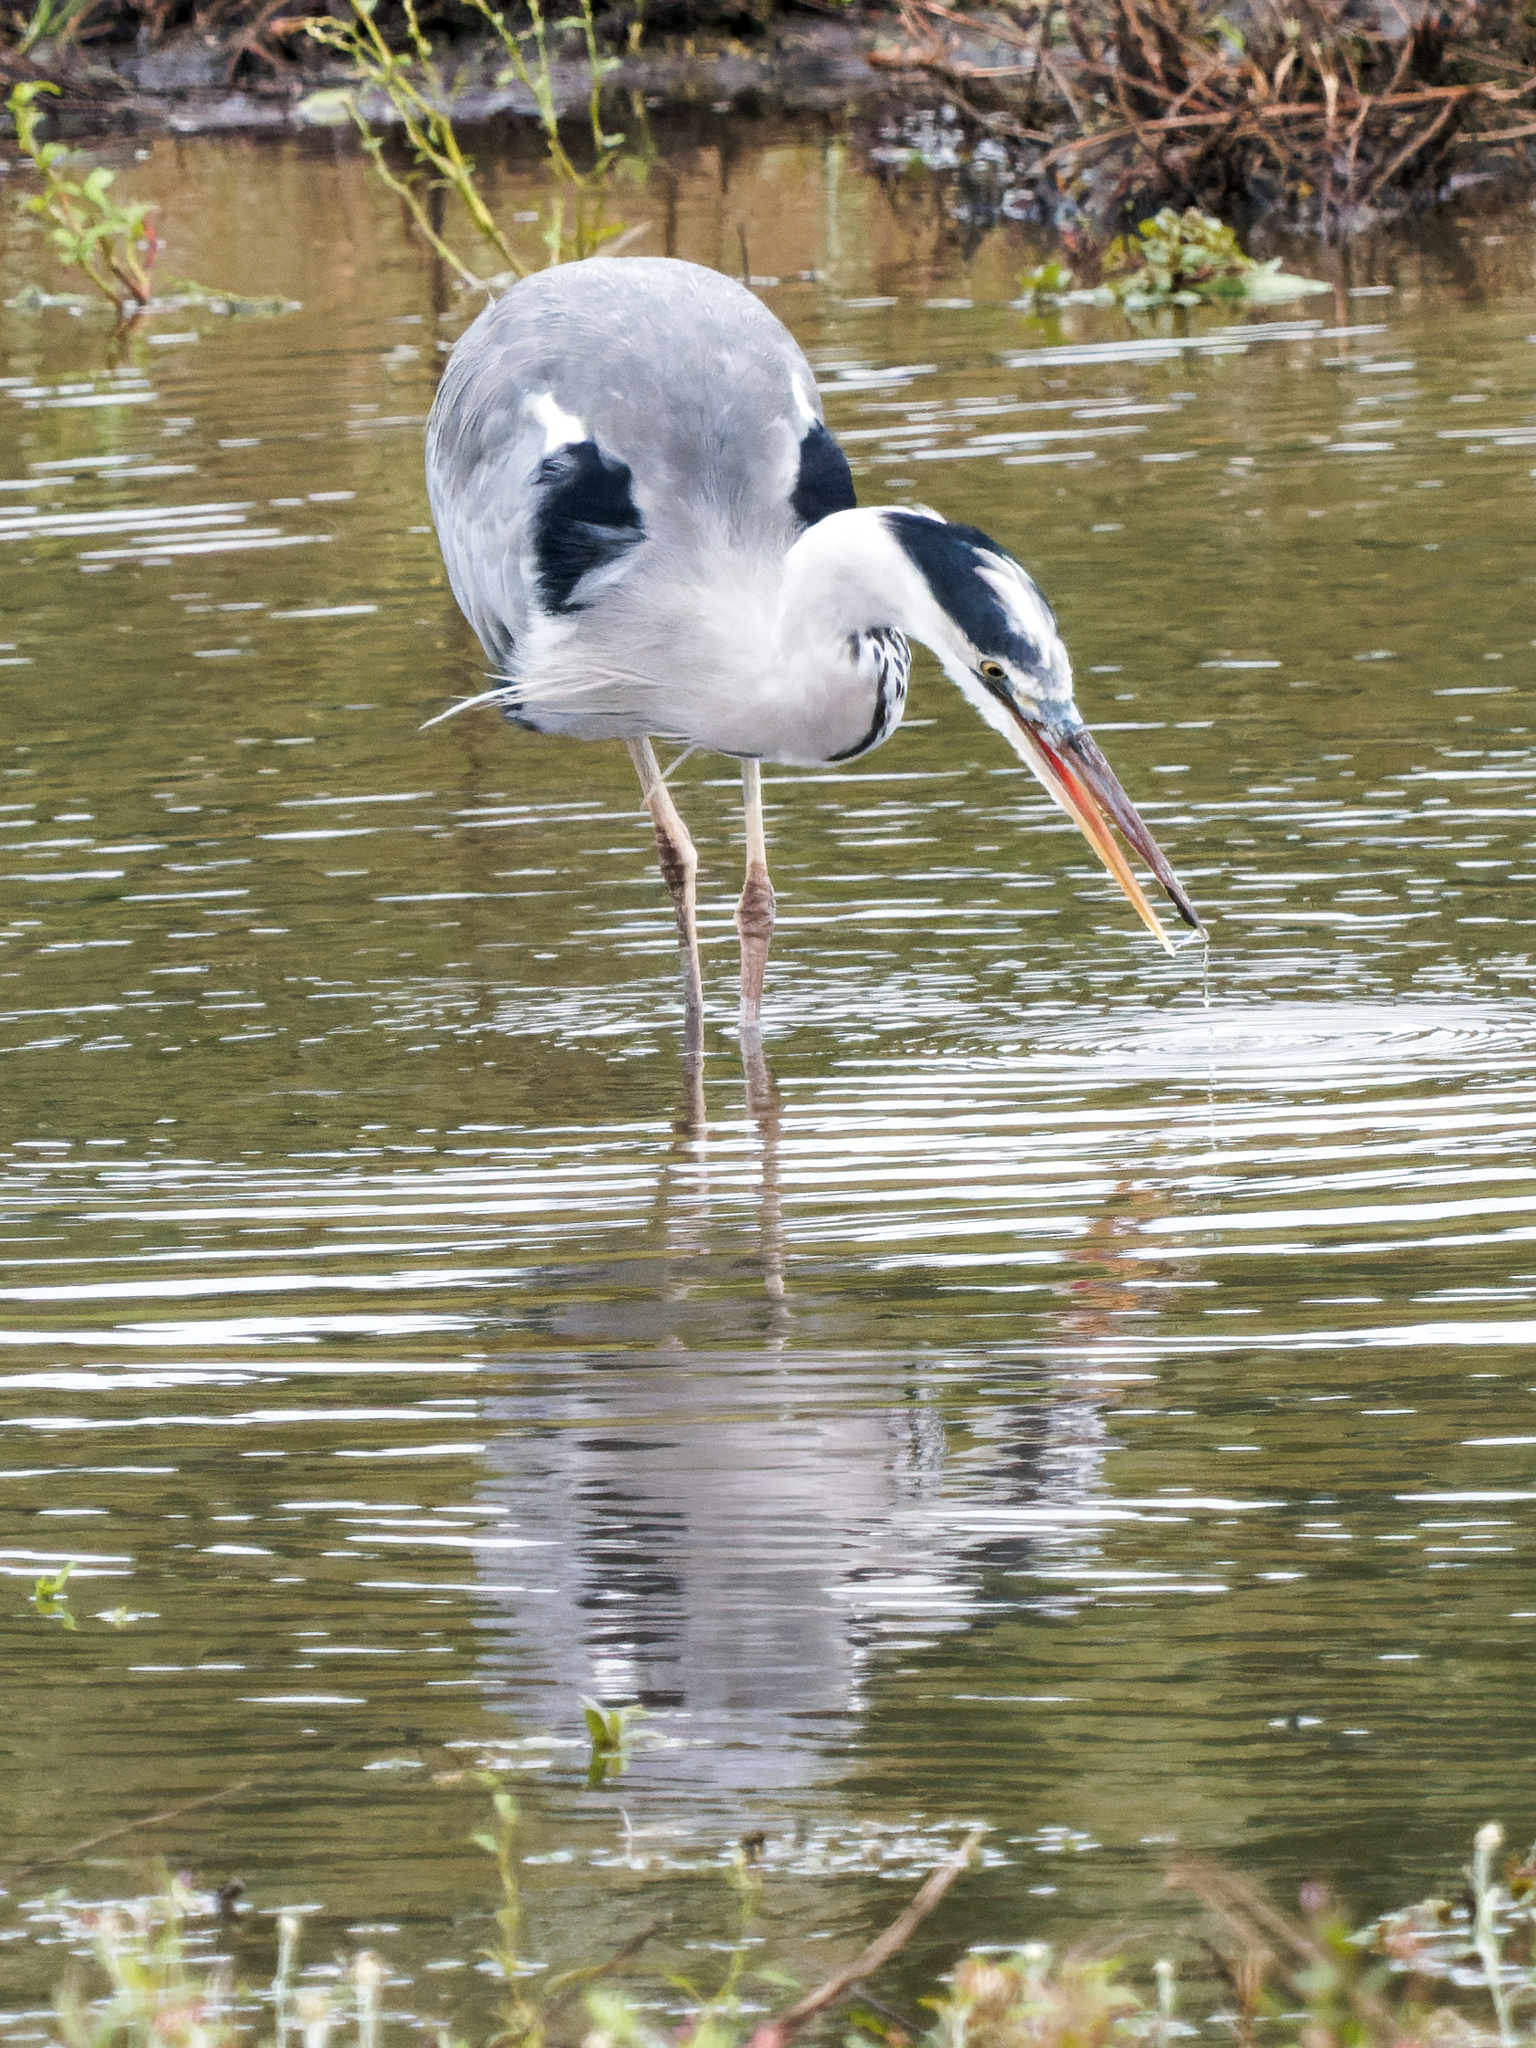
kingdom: Animalia
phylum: Chordata
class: Aves
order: Pelecaniformes
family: Ardeidae
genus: Ardea
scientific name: Ardea cinerea
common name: Grey heron
